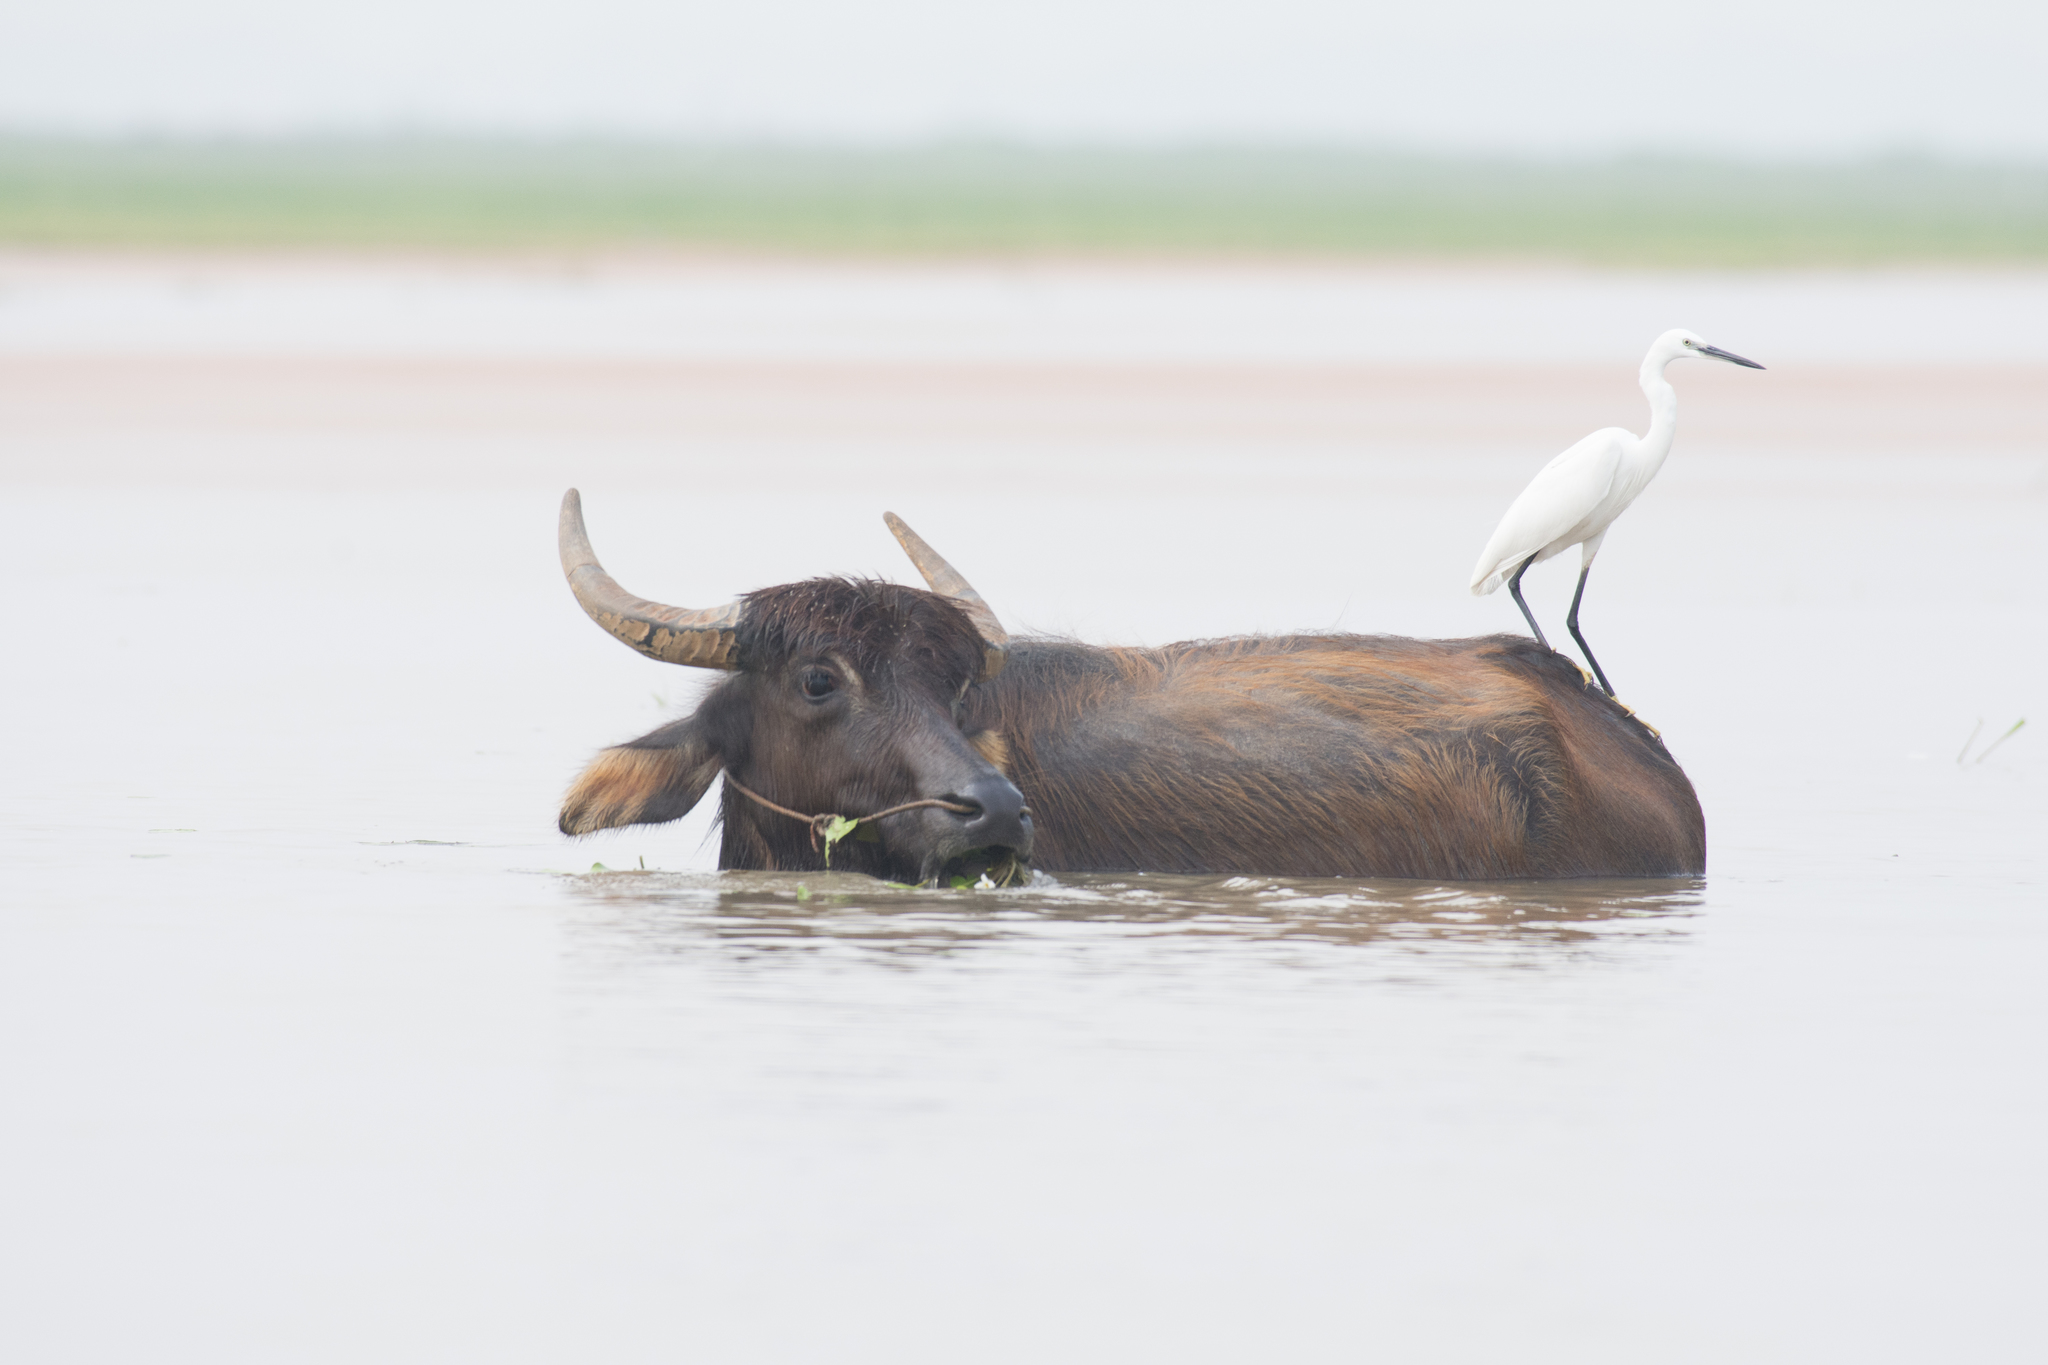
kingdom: Animalia
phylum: Chordata
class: Aves
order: Pelecaniformes
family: Ardeidae
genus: Egretta
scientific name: Egretta garzetta
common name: Little egret
